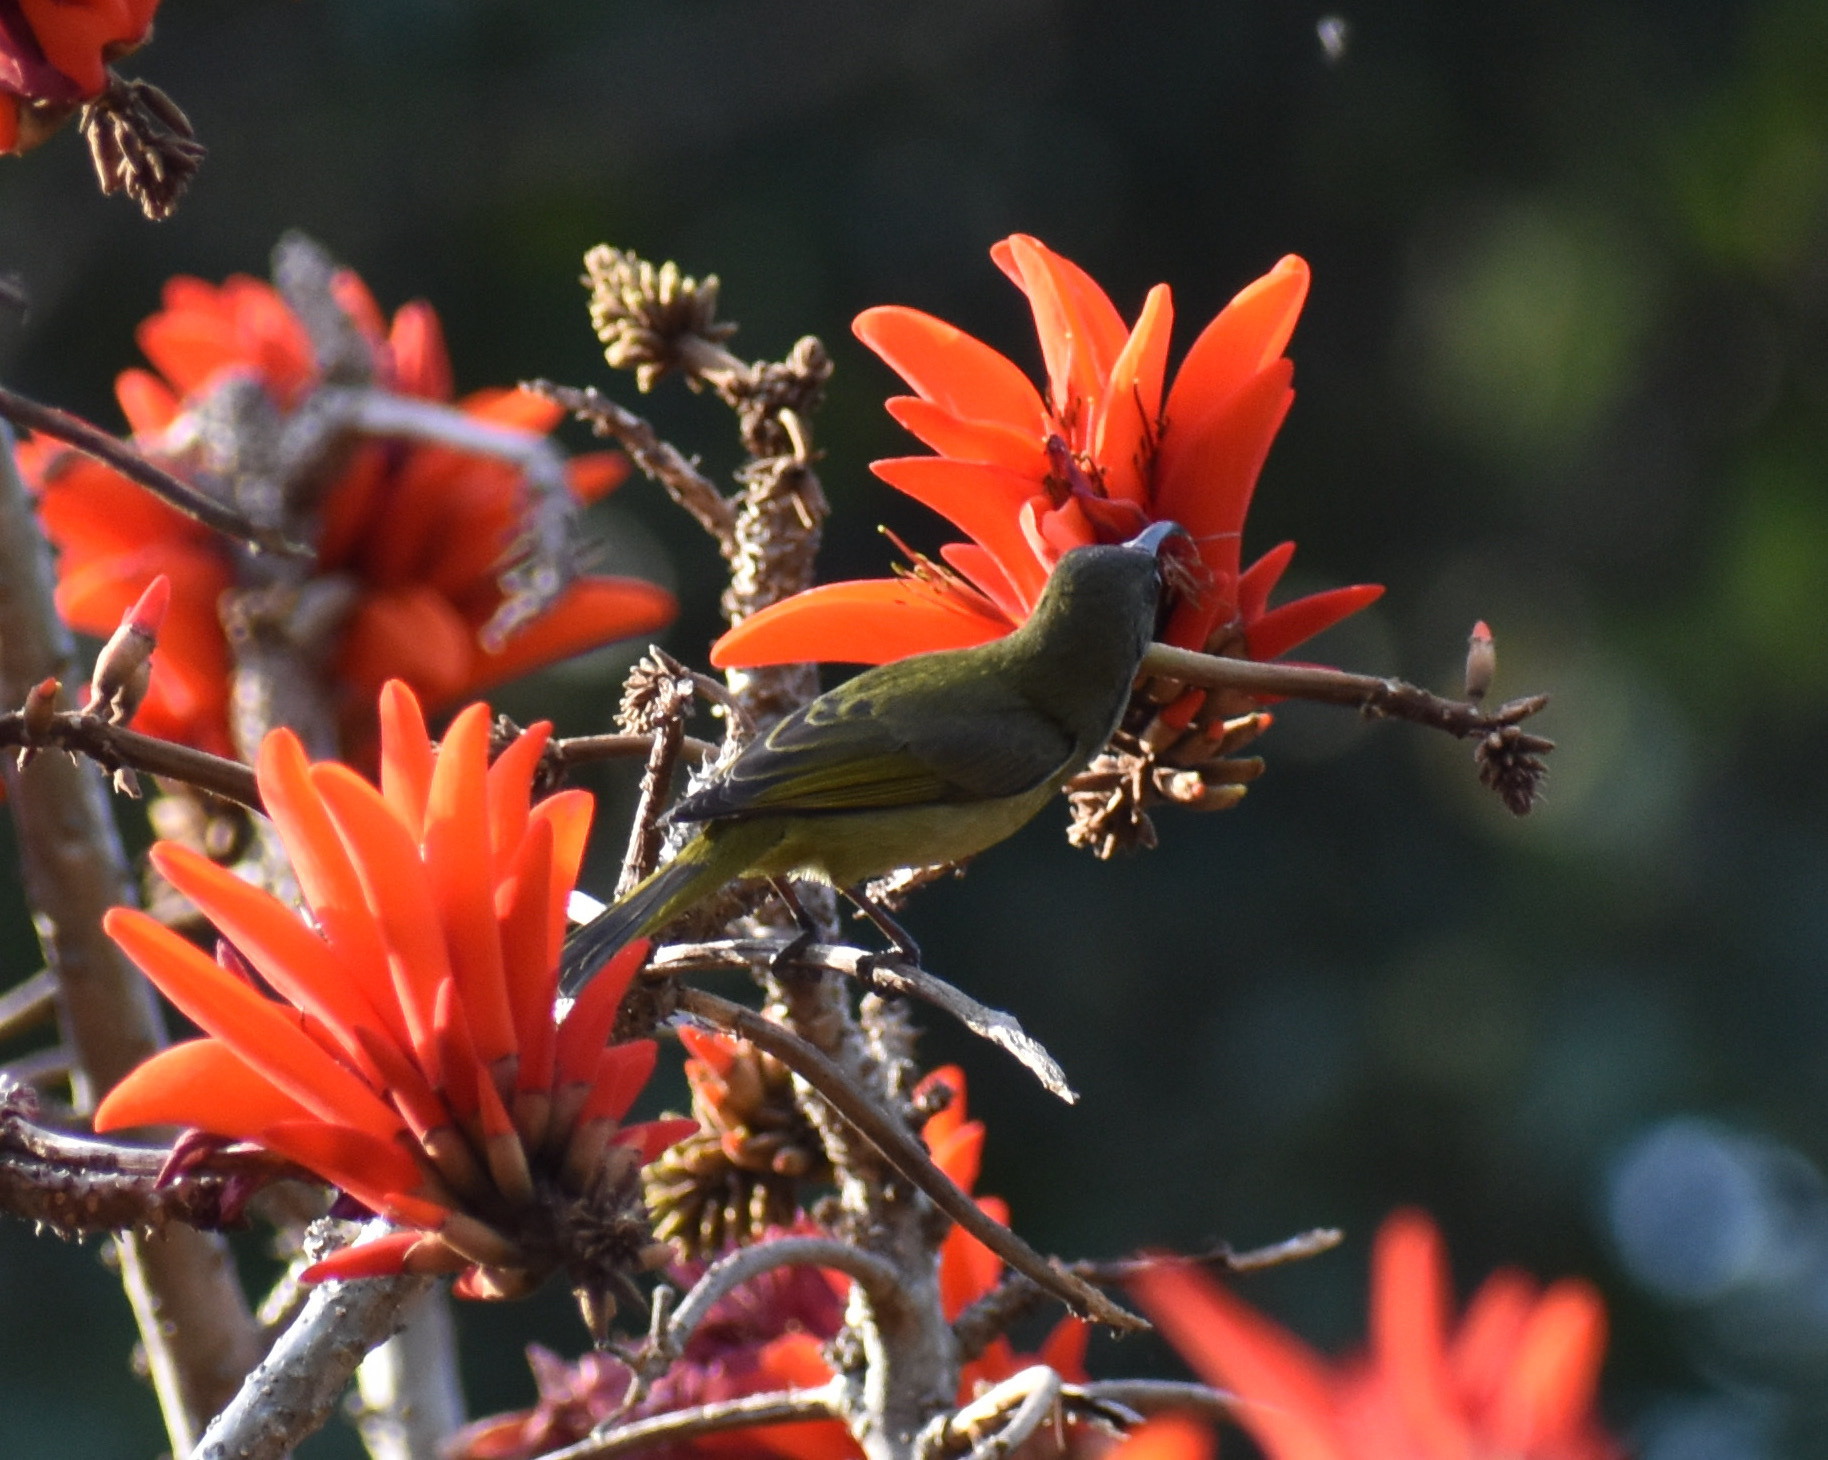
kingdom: Animalia
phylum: Chordata
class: Aves
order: Passeriformes
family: Nectariniidae
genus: Cyanomitra
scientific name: Cyanomitra olivacea
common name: Olive sunbird
